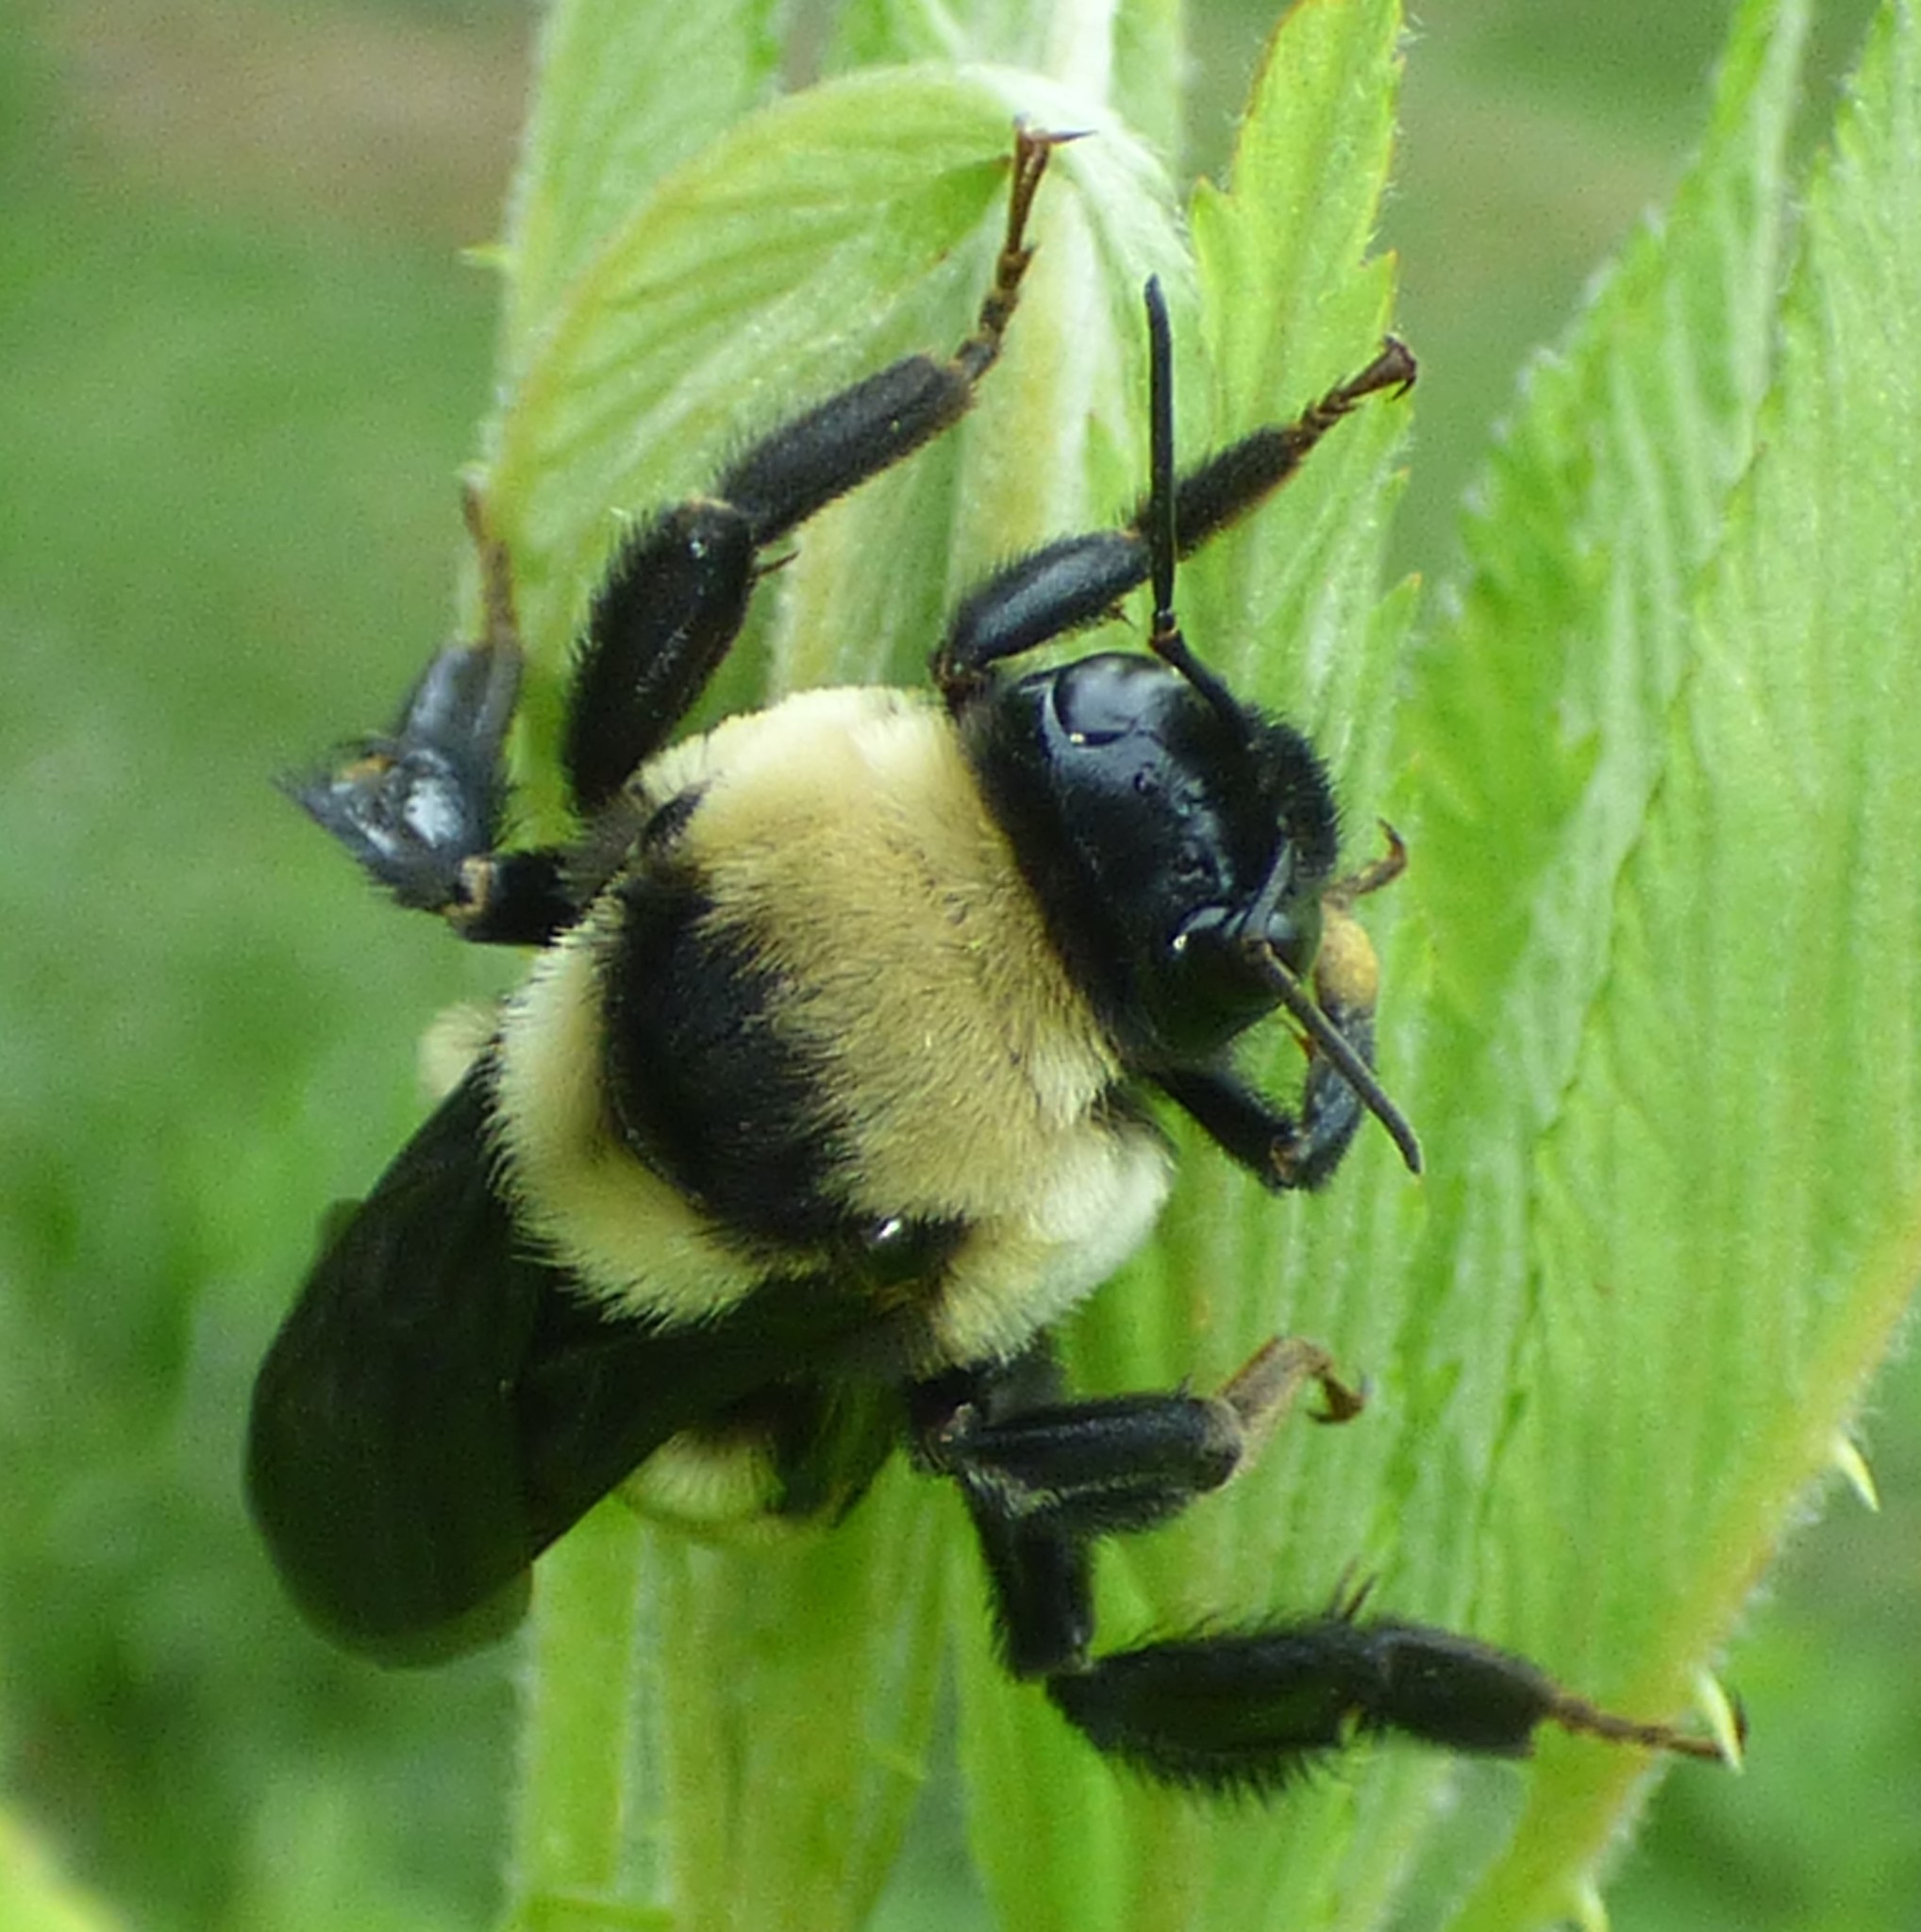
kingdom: Animalia
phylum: Arthropoda
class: Insecta
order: Hymenoptera
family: Apidae
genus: Bombus
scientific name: Bombus fraternus
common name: Southern plains bumble bee
